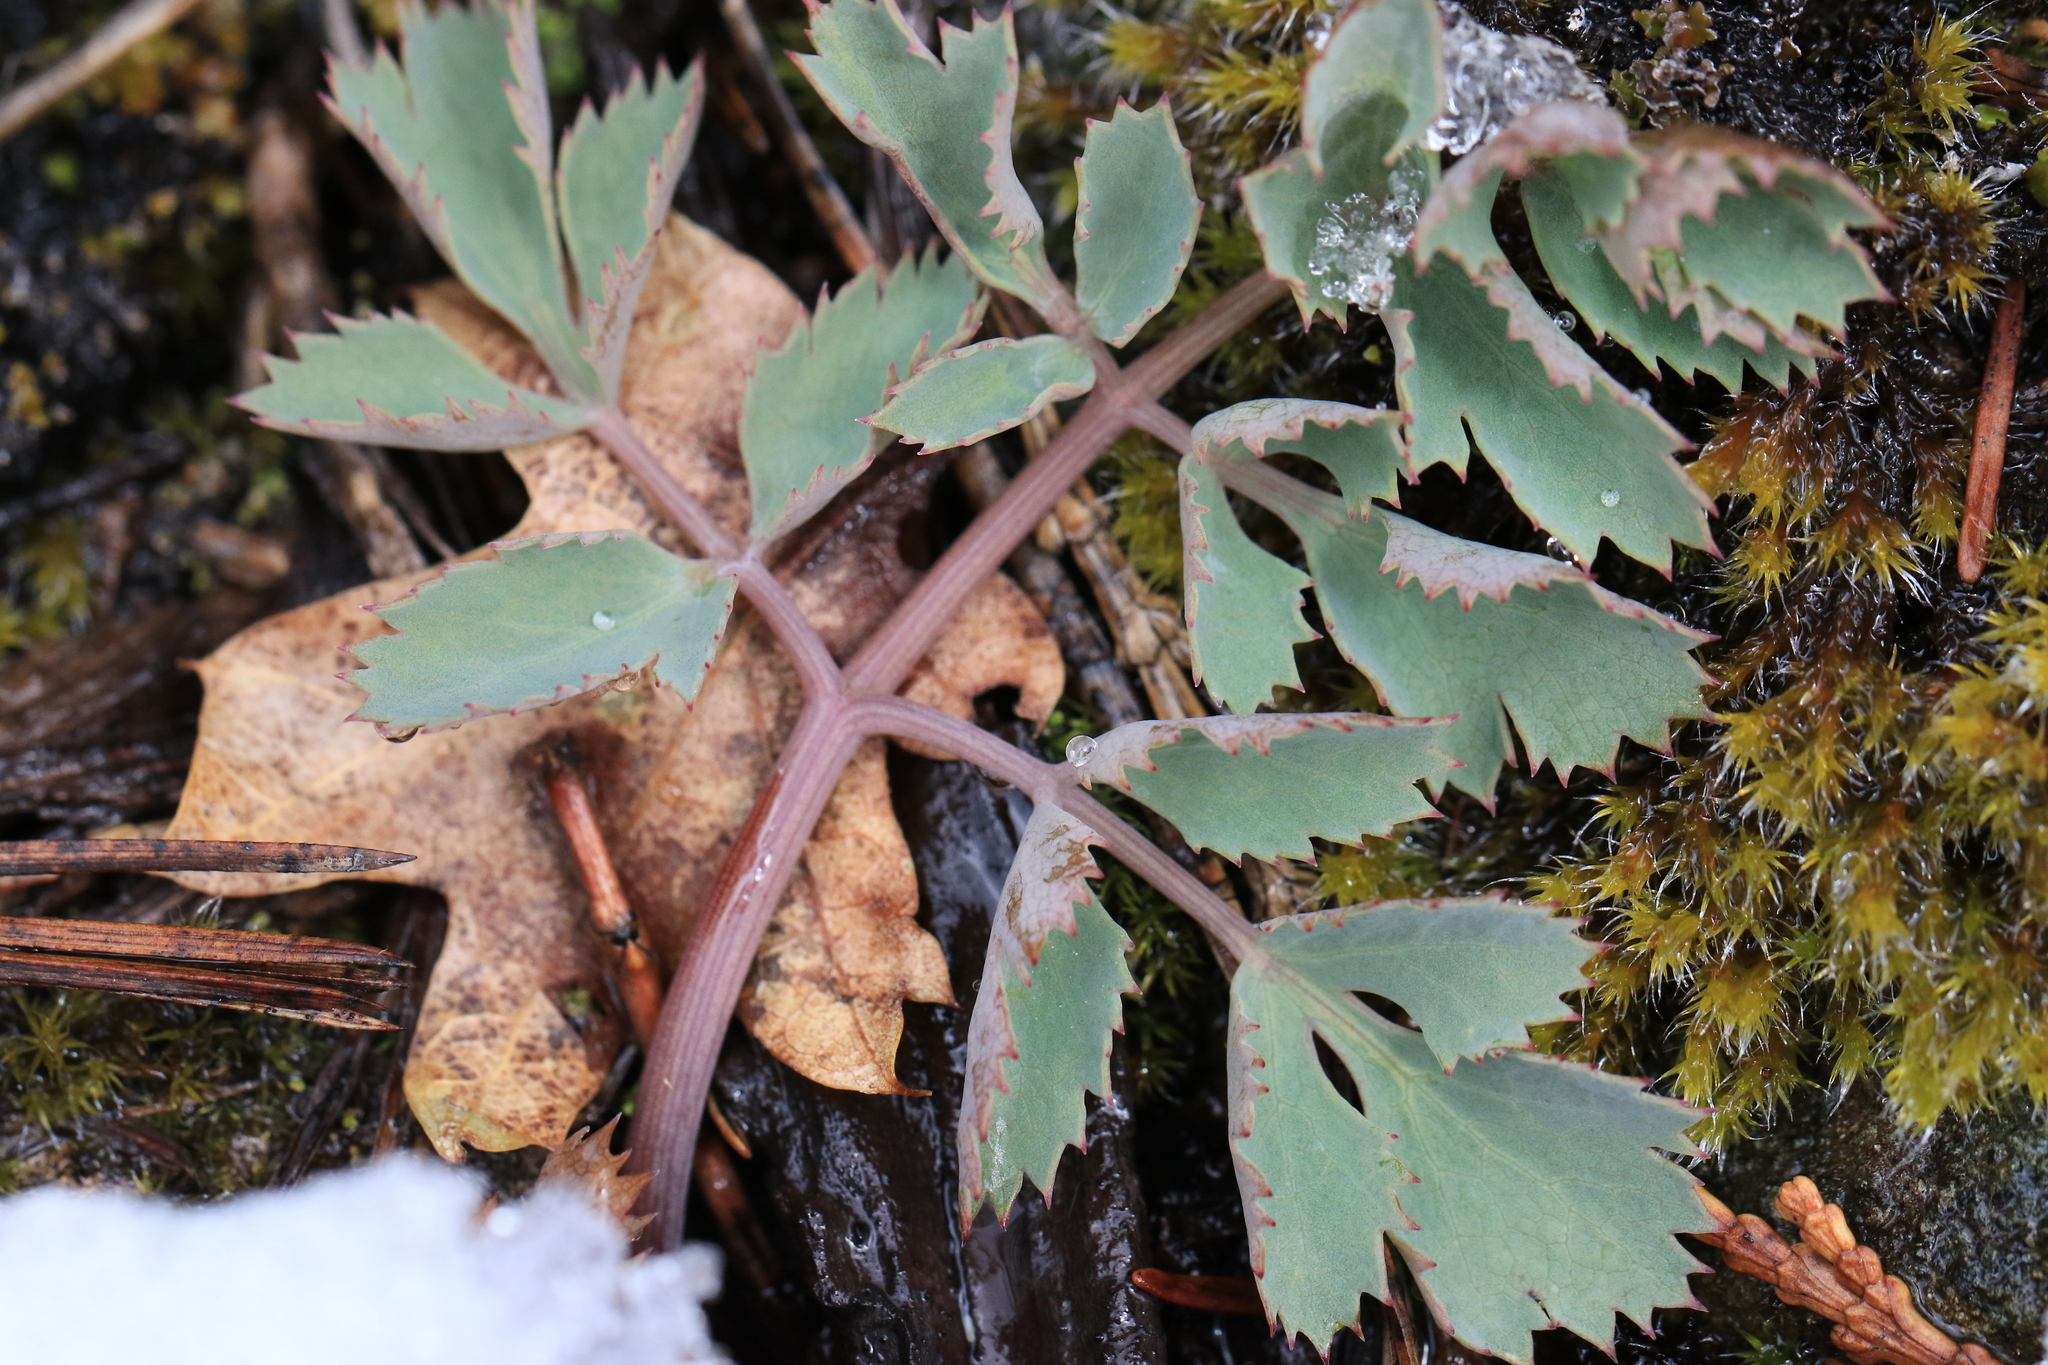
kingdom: Plantae
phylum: Tracheophyta
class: Magnoliopsida
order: Apiales
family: Apiaceae
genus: Lomatium
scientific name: Lomatium howellii
